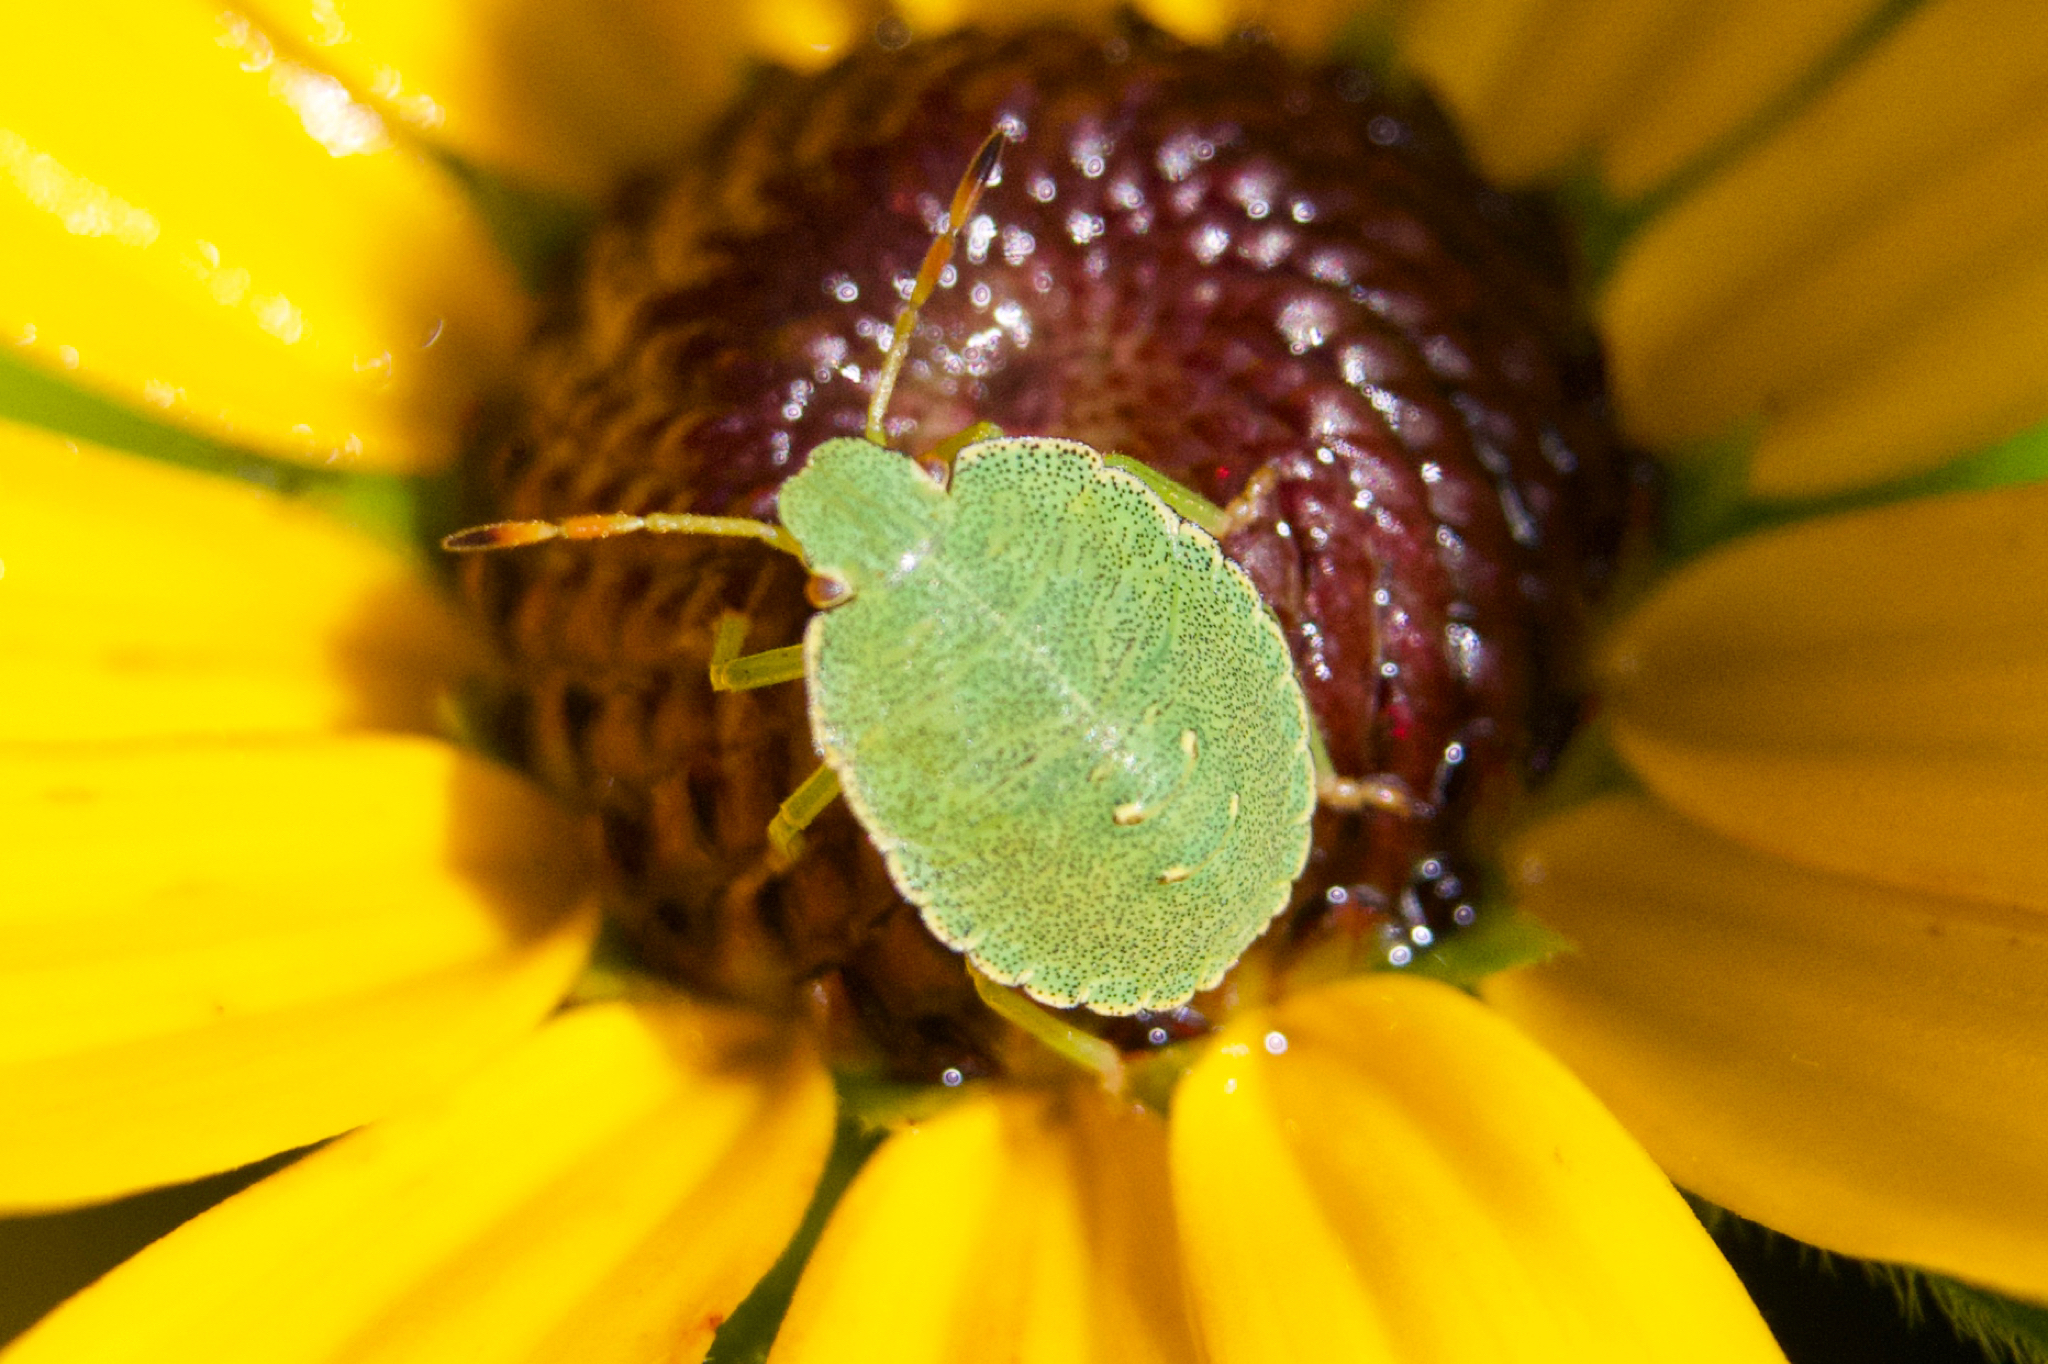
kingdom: Animalia
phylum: Arthropoda
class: Insecta
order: Hemiptera
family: Pentatomidae
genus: Palomena
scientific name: Palomena prasina
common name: Green shieldbug
